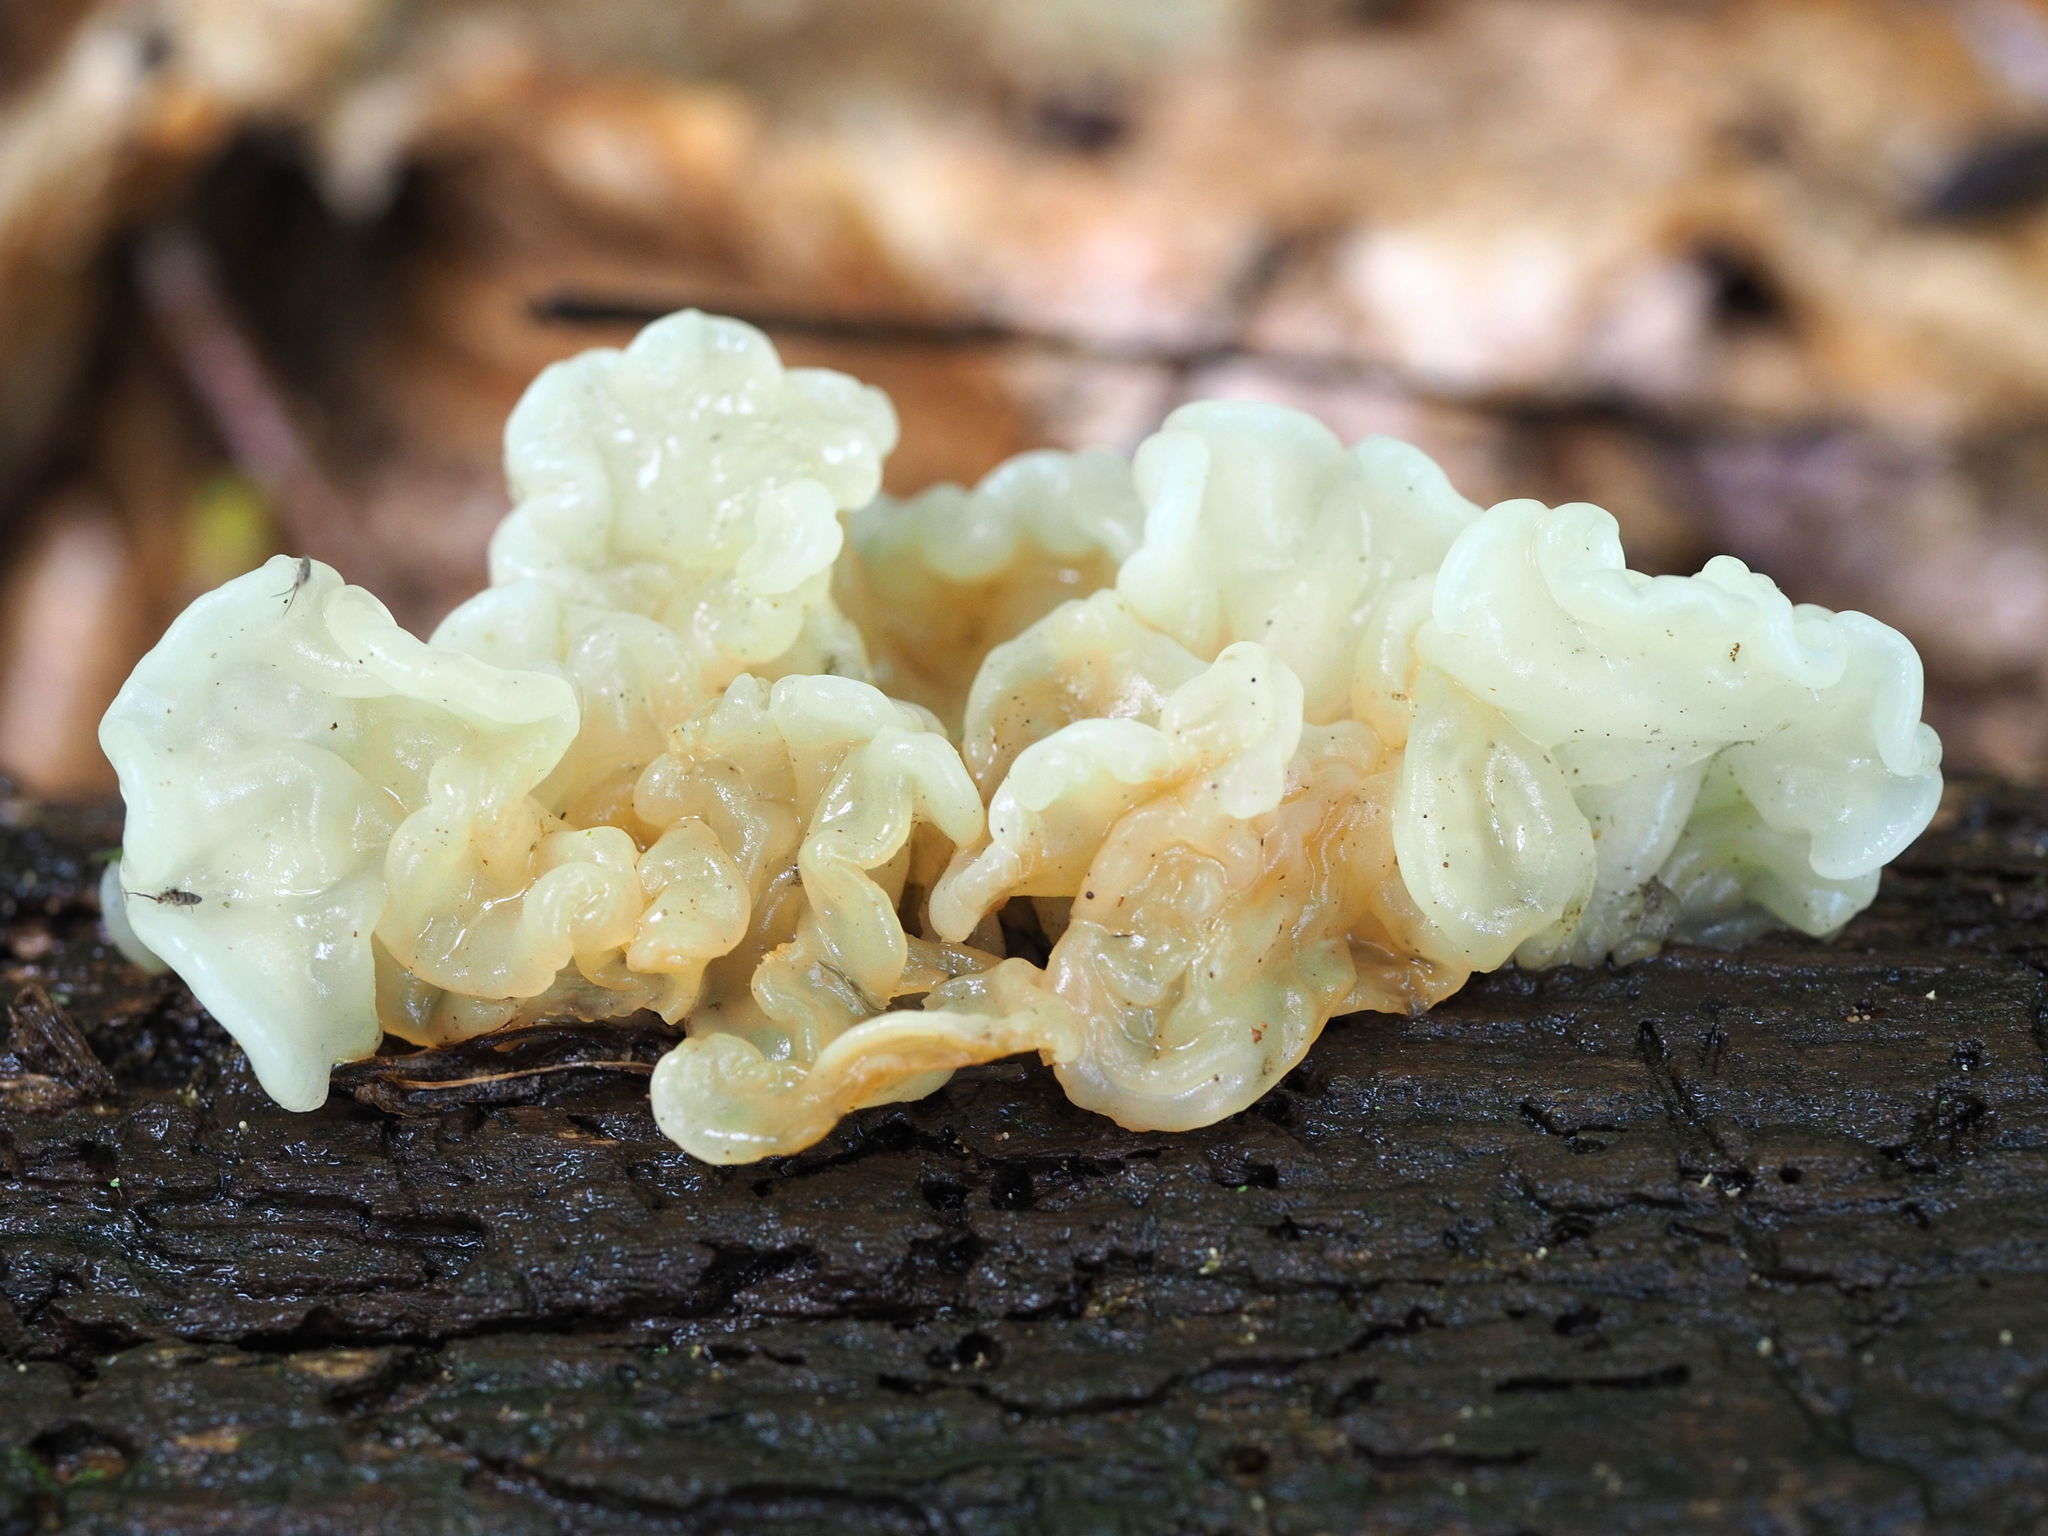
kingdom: Fungi
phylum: Basidiomycota
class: Agaricomycetes
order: Auriculariales
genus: Ductifera
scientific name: Ductifera pululahuana
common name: White jelly fungus
